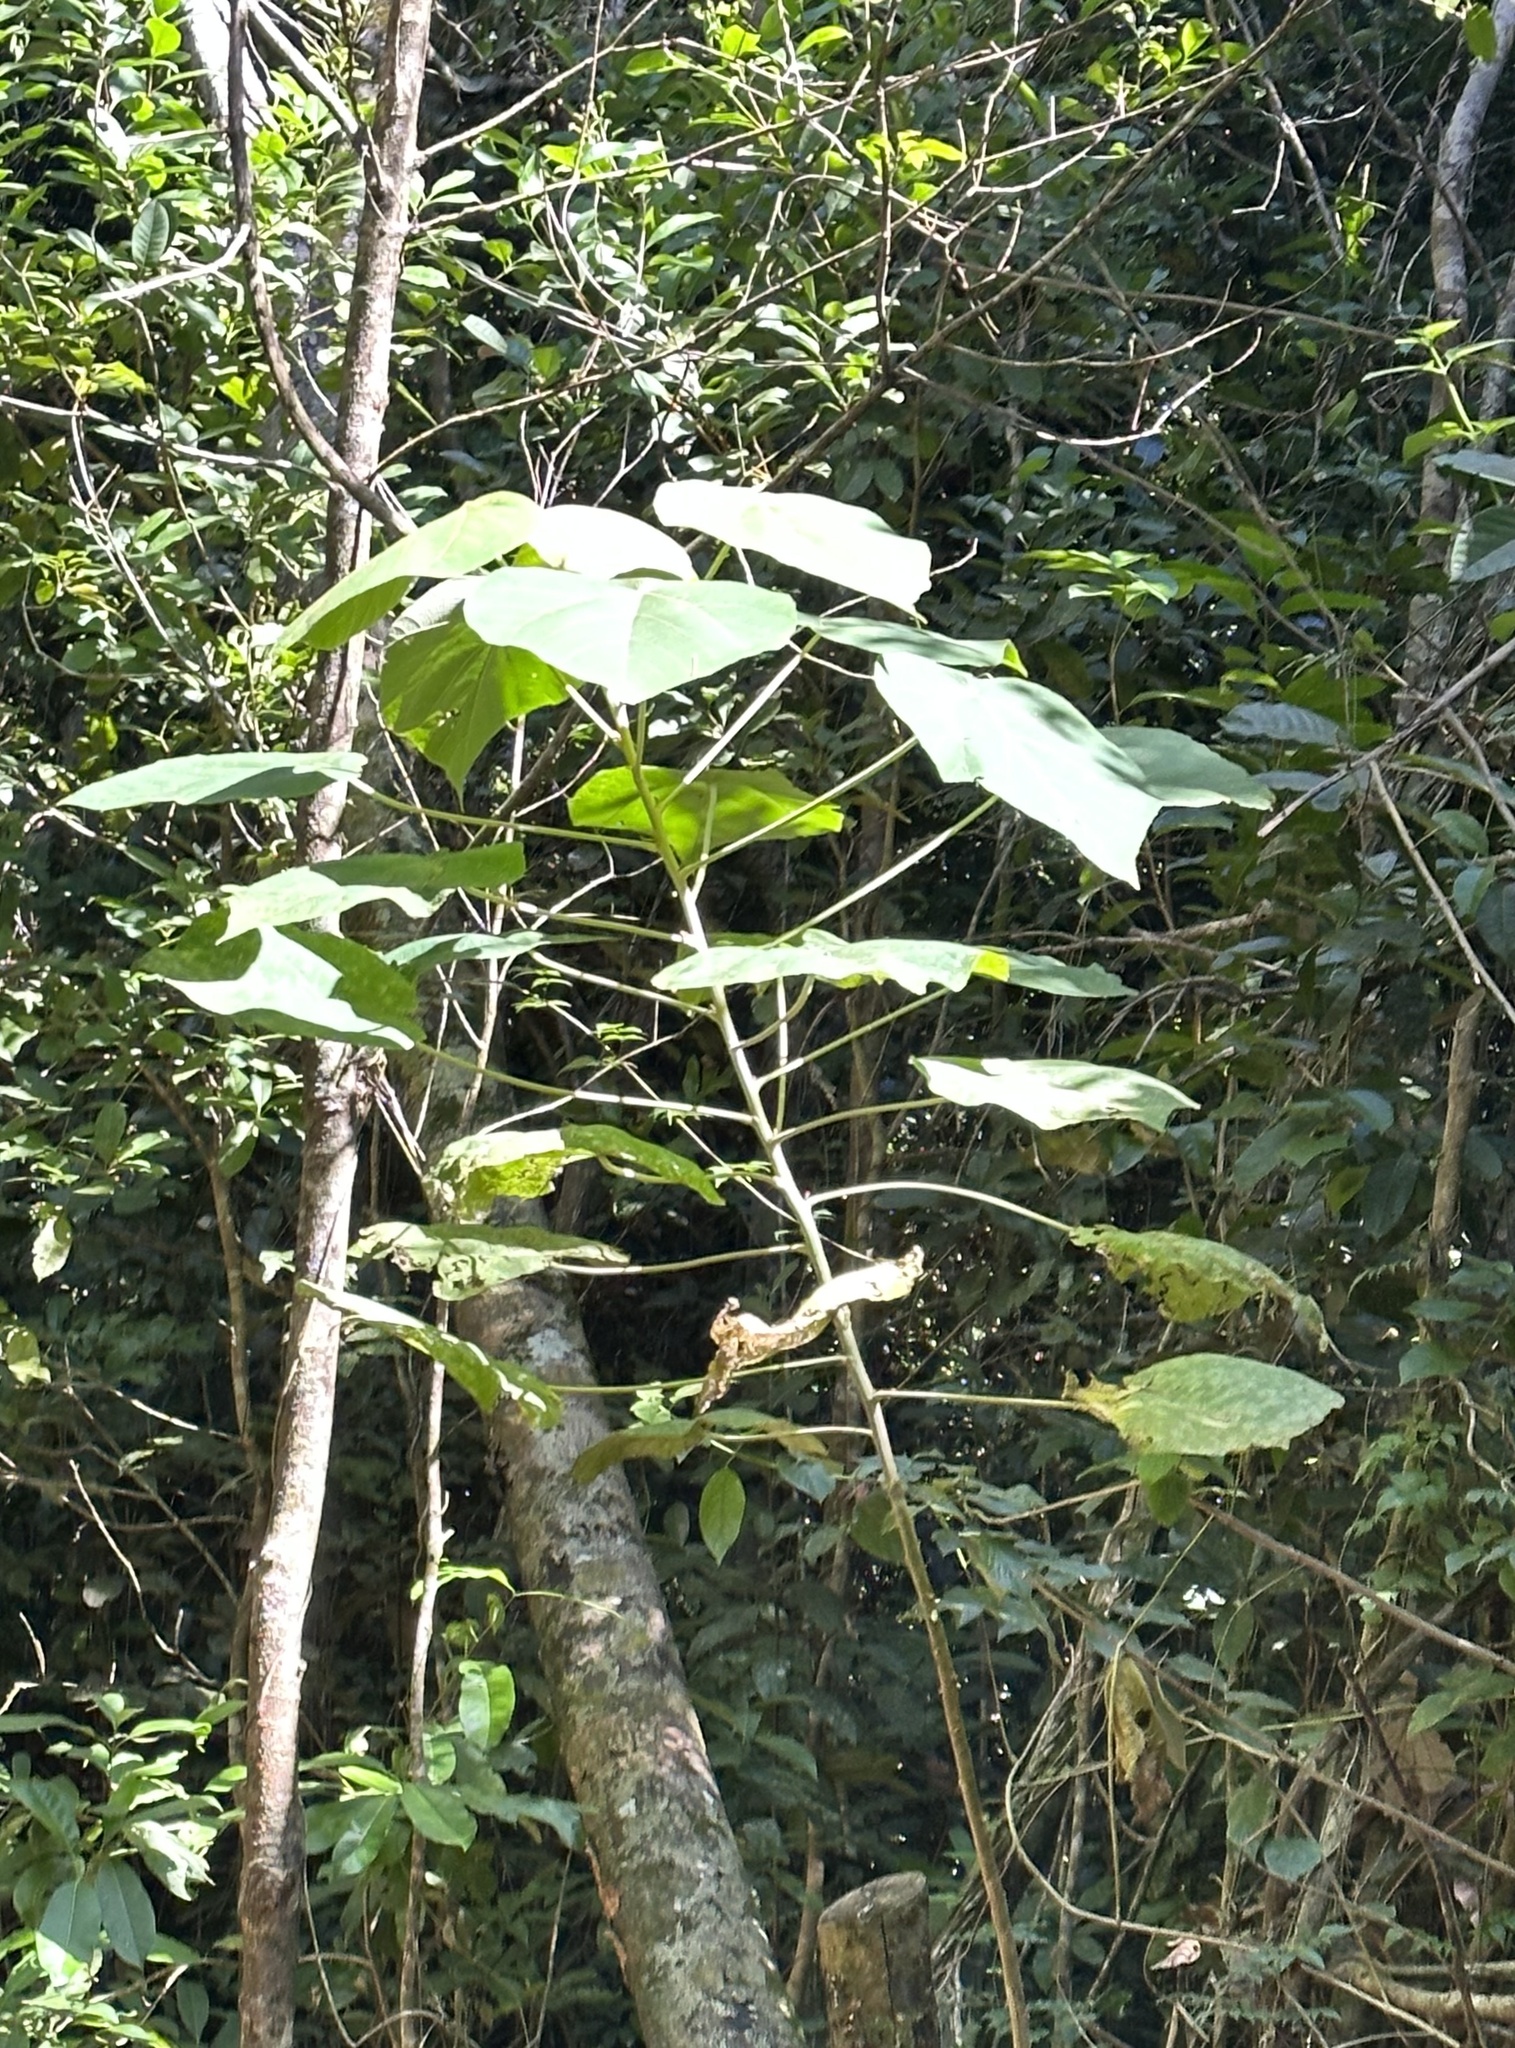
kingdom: Plantae
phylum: Tracheophyta
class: Magnoliopsida
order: Malpighiales
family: Euphorbiaceae
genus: Aleurites
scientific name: Aleurites rockinghamensis
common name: Candelnut
